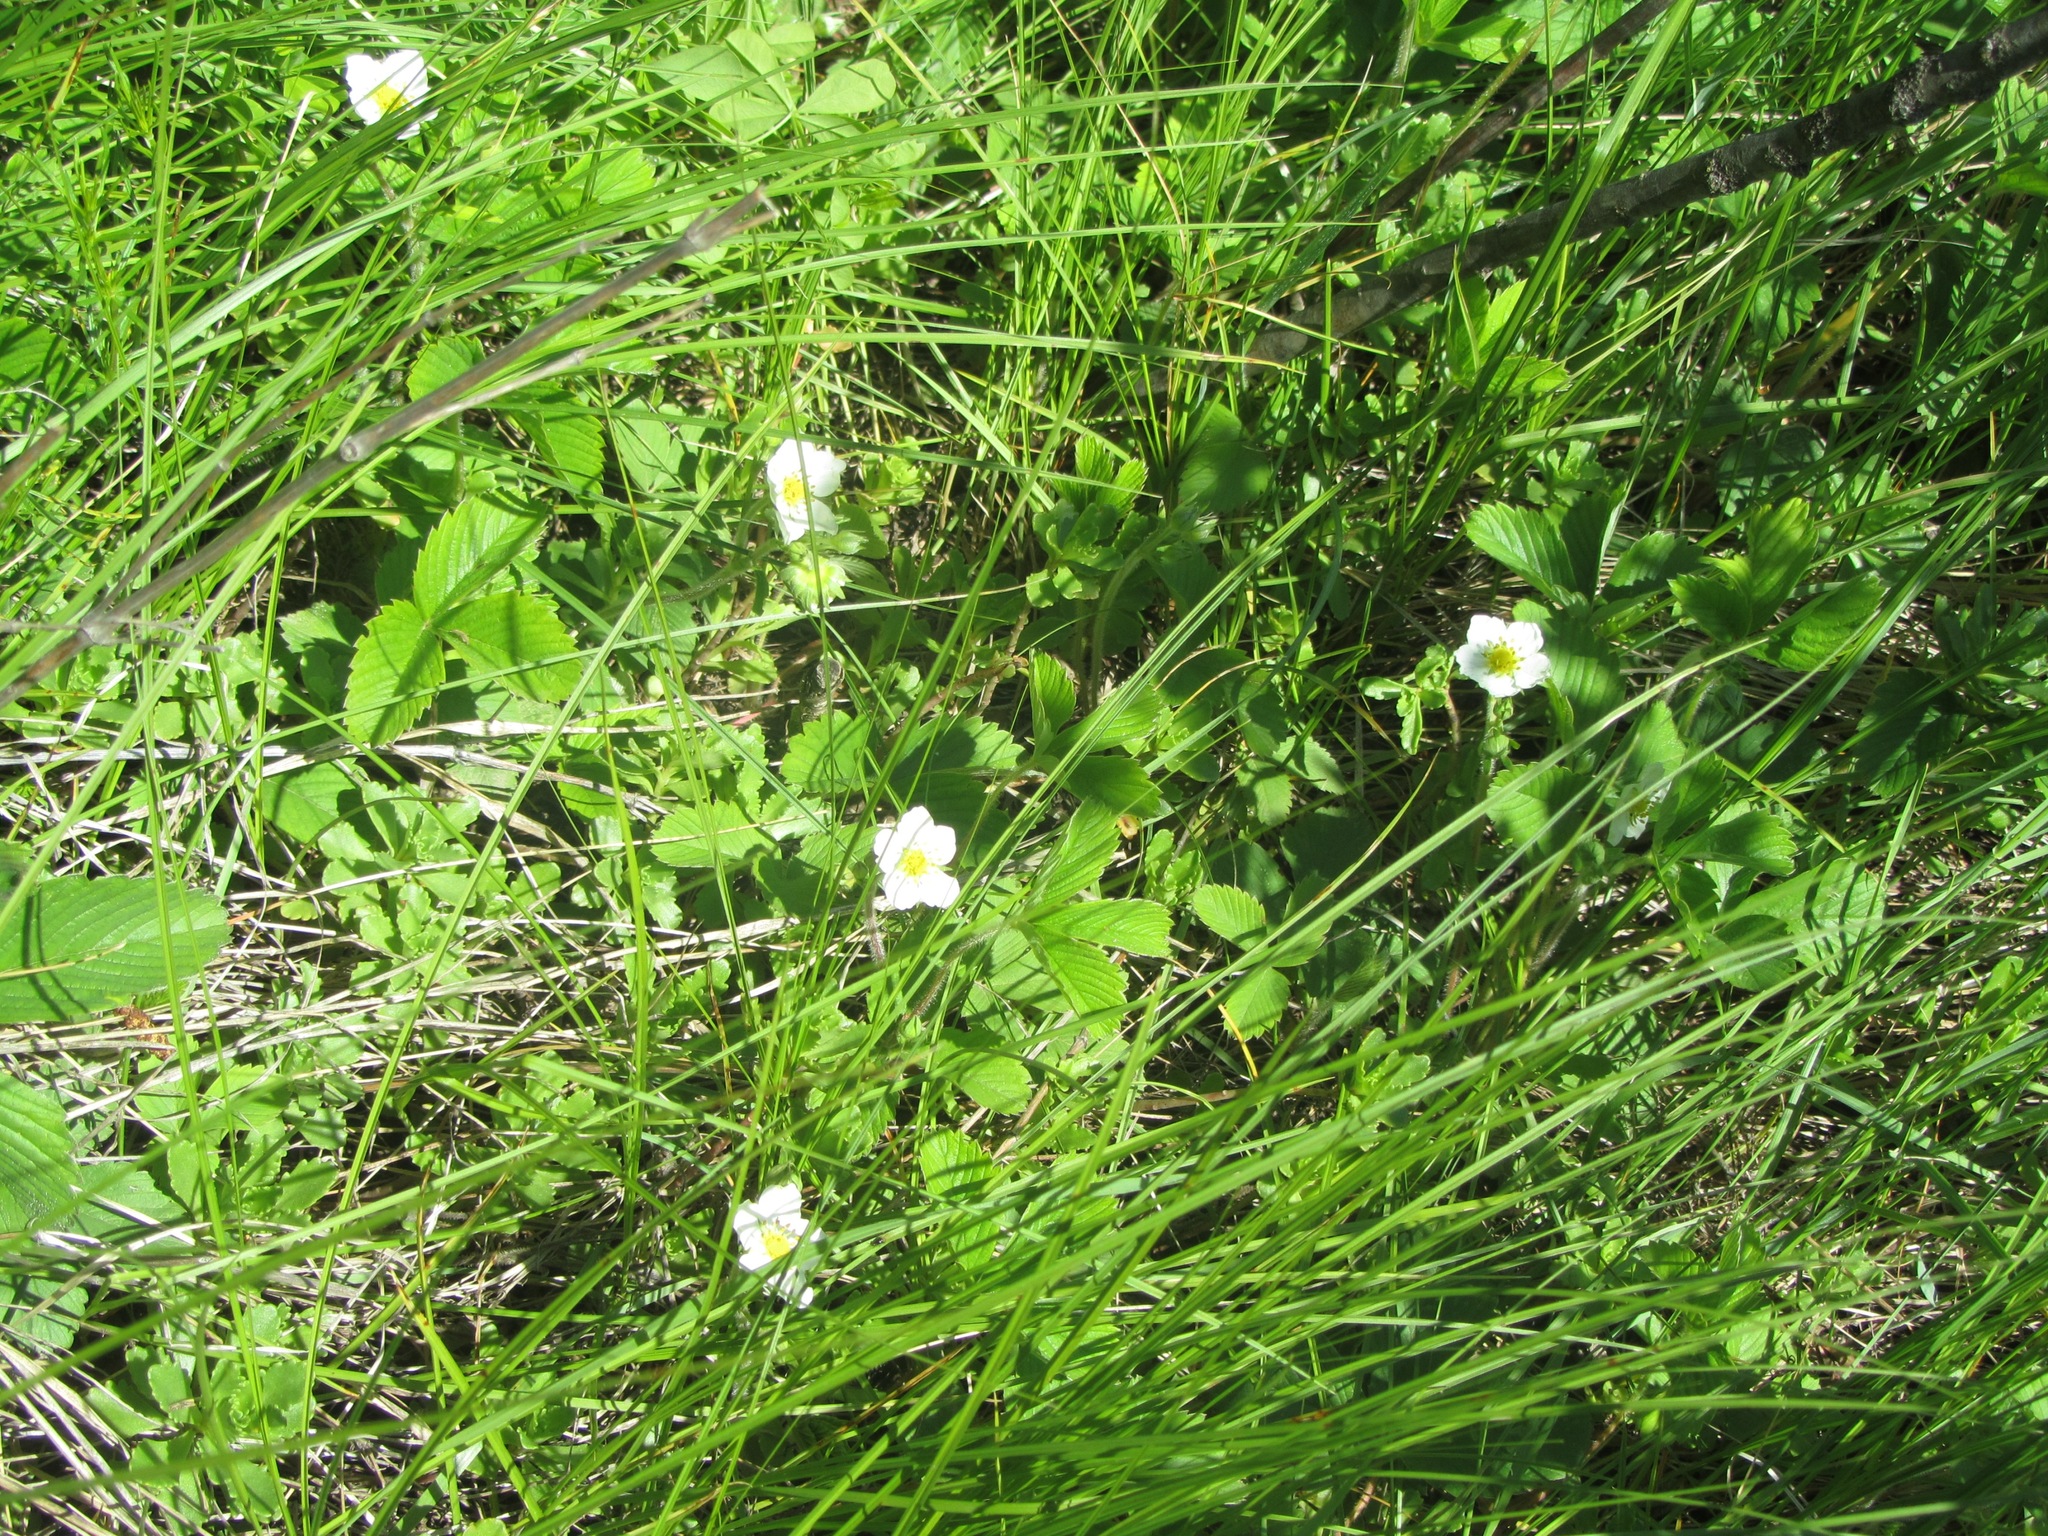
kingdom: Plantae
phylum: Tracheophyta
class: Magnoliopsida
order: Rosales
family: Rosaceae
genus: Fragaria
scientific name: Fragaria viridis
